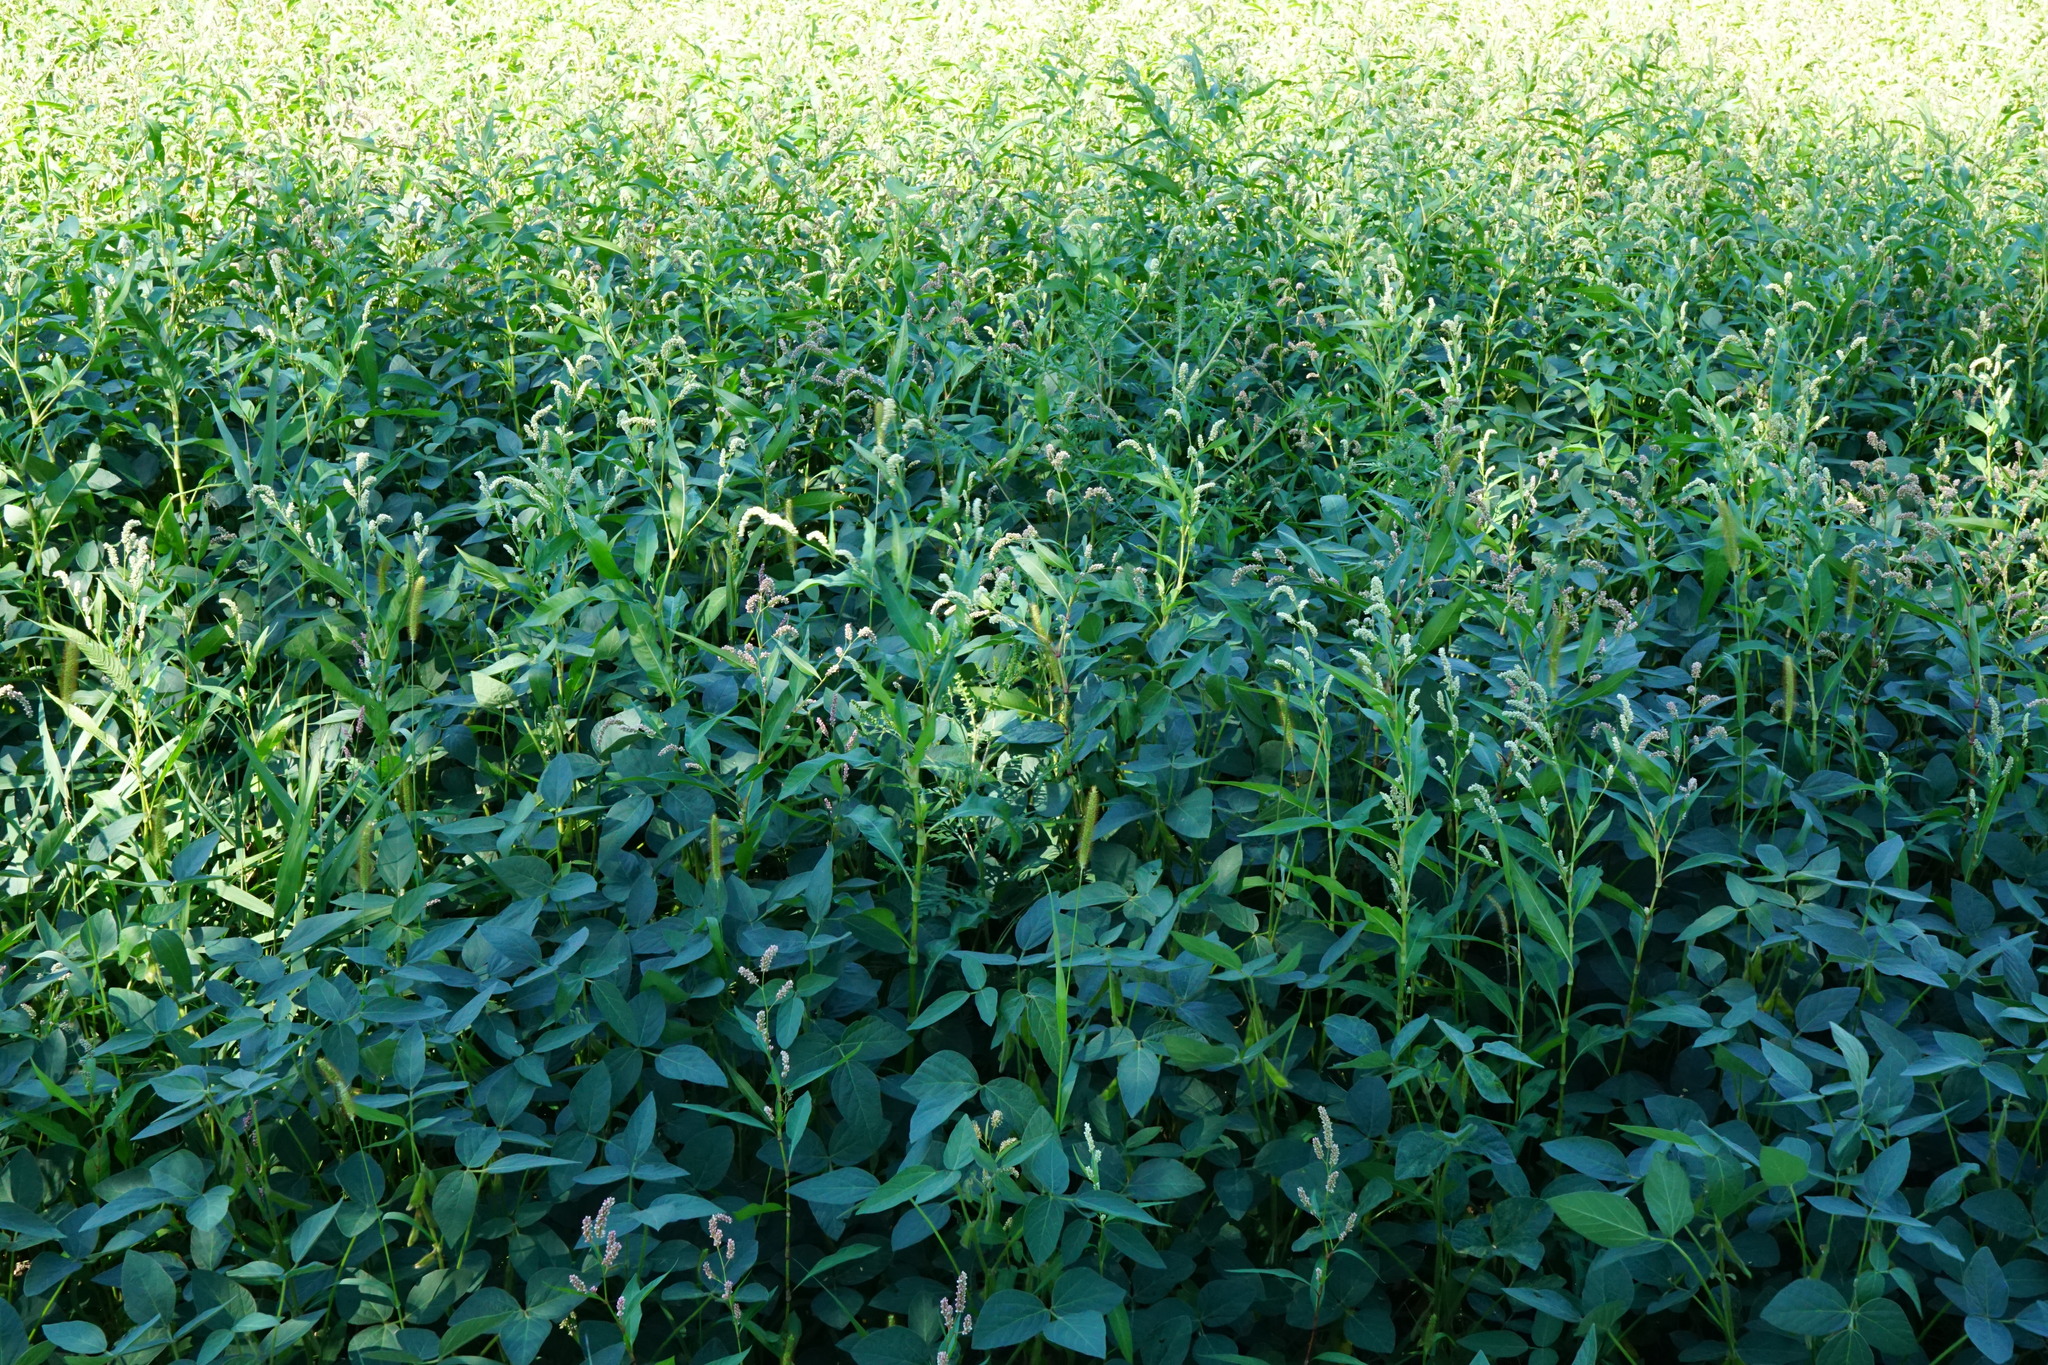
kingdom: Plantae
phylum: Tracheophyta
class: Magnoliopsida
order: Caryophyllales
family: Polygonaceae
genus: Persicaria
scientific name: Persicaria lapathifolia
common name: Curlytop knotweed
